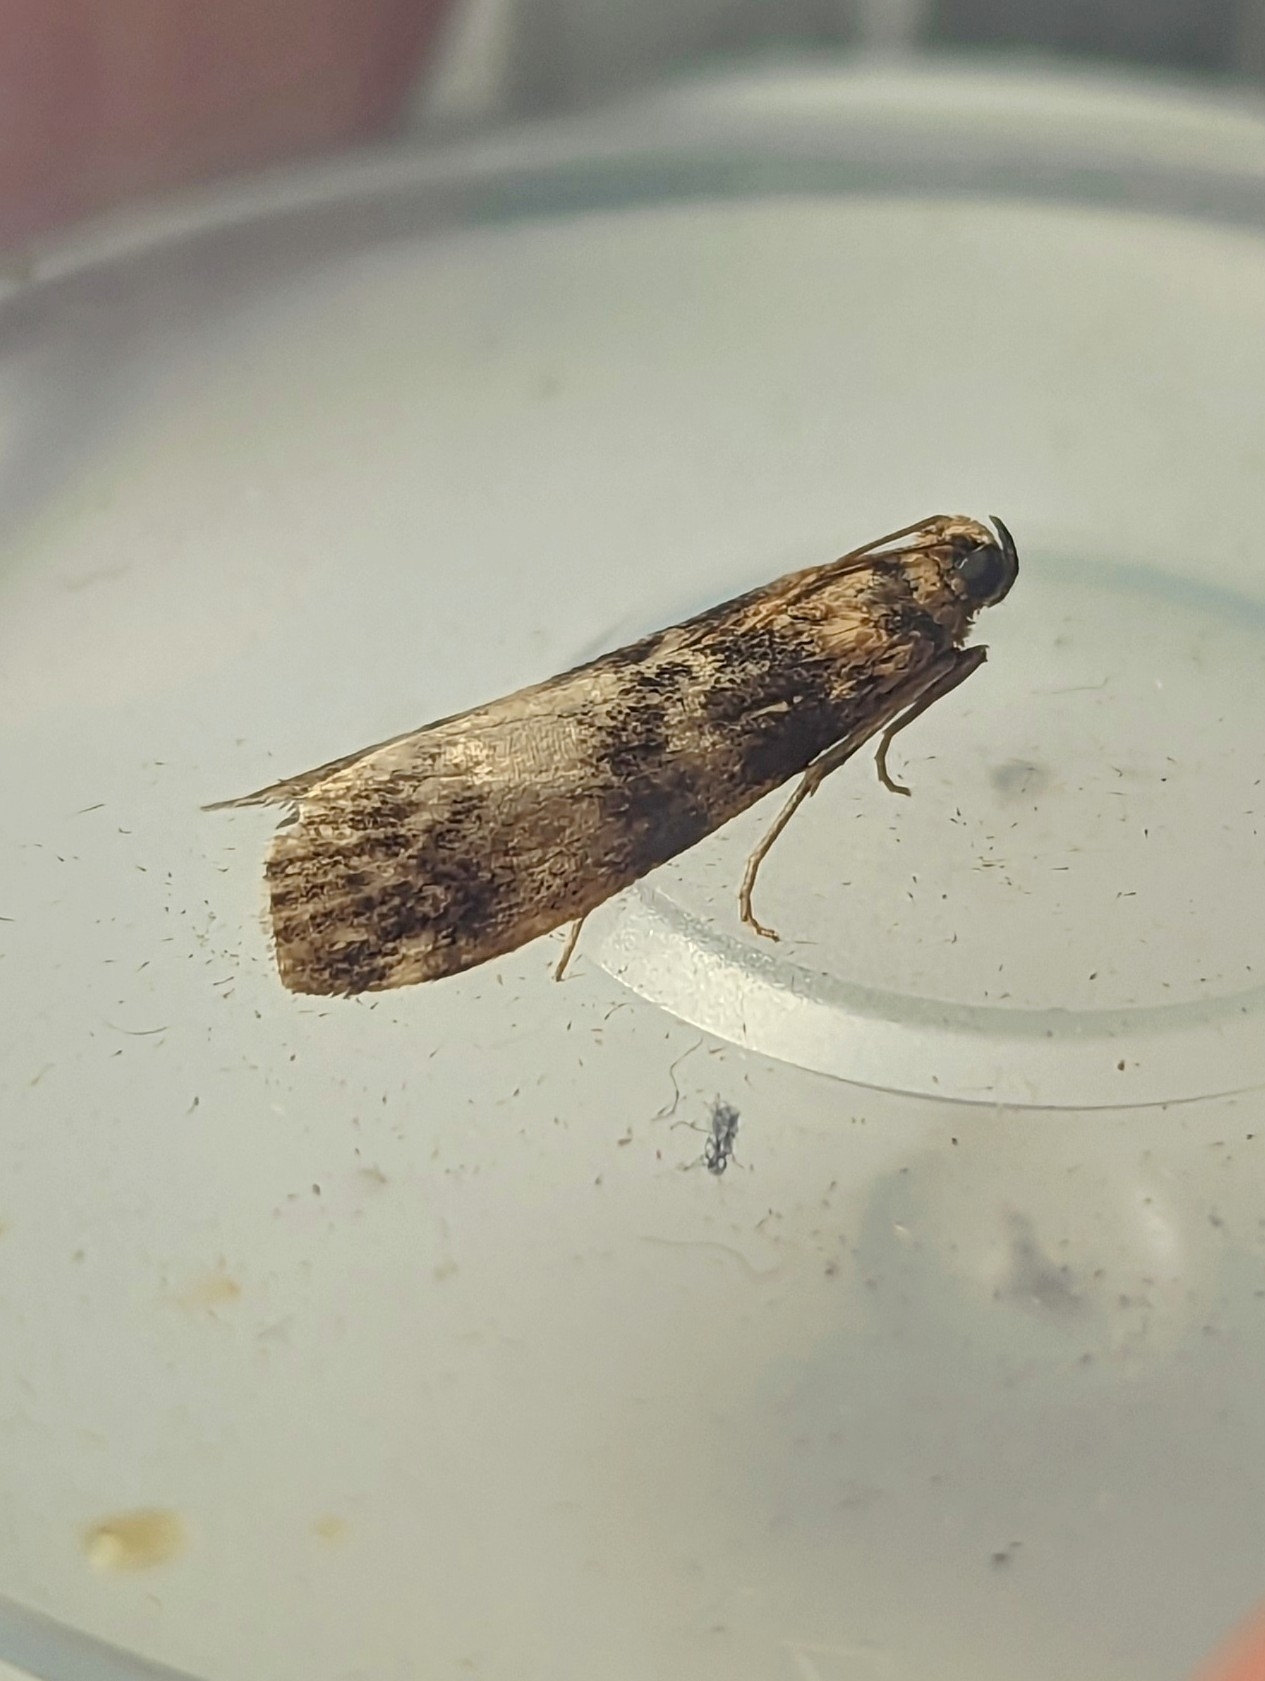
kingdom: Animalia
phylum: Arthropoda
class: Insecta
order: Lepidoptera
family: Pyralidae
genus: Euzophera
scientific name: Euzophera pinguis
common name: Ash-bark knot-horn
